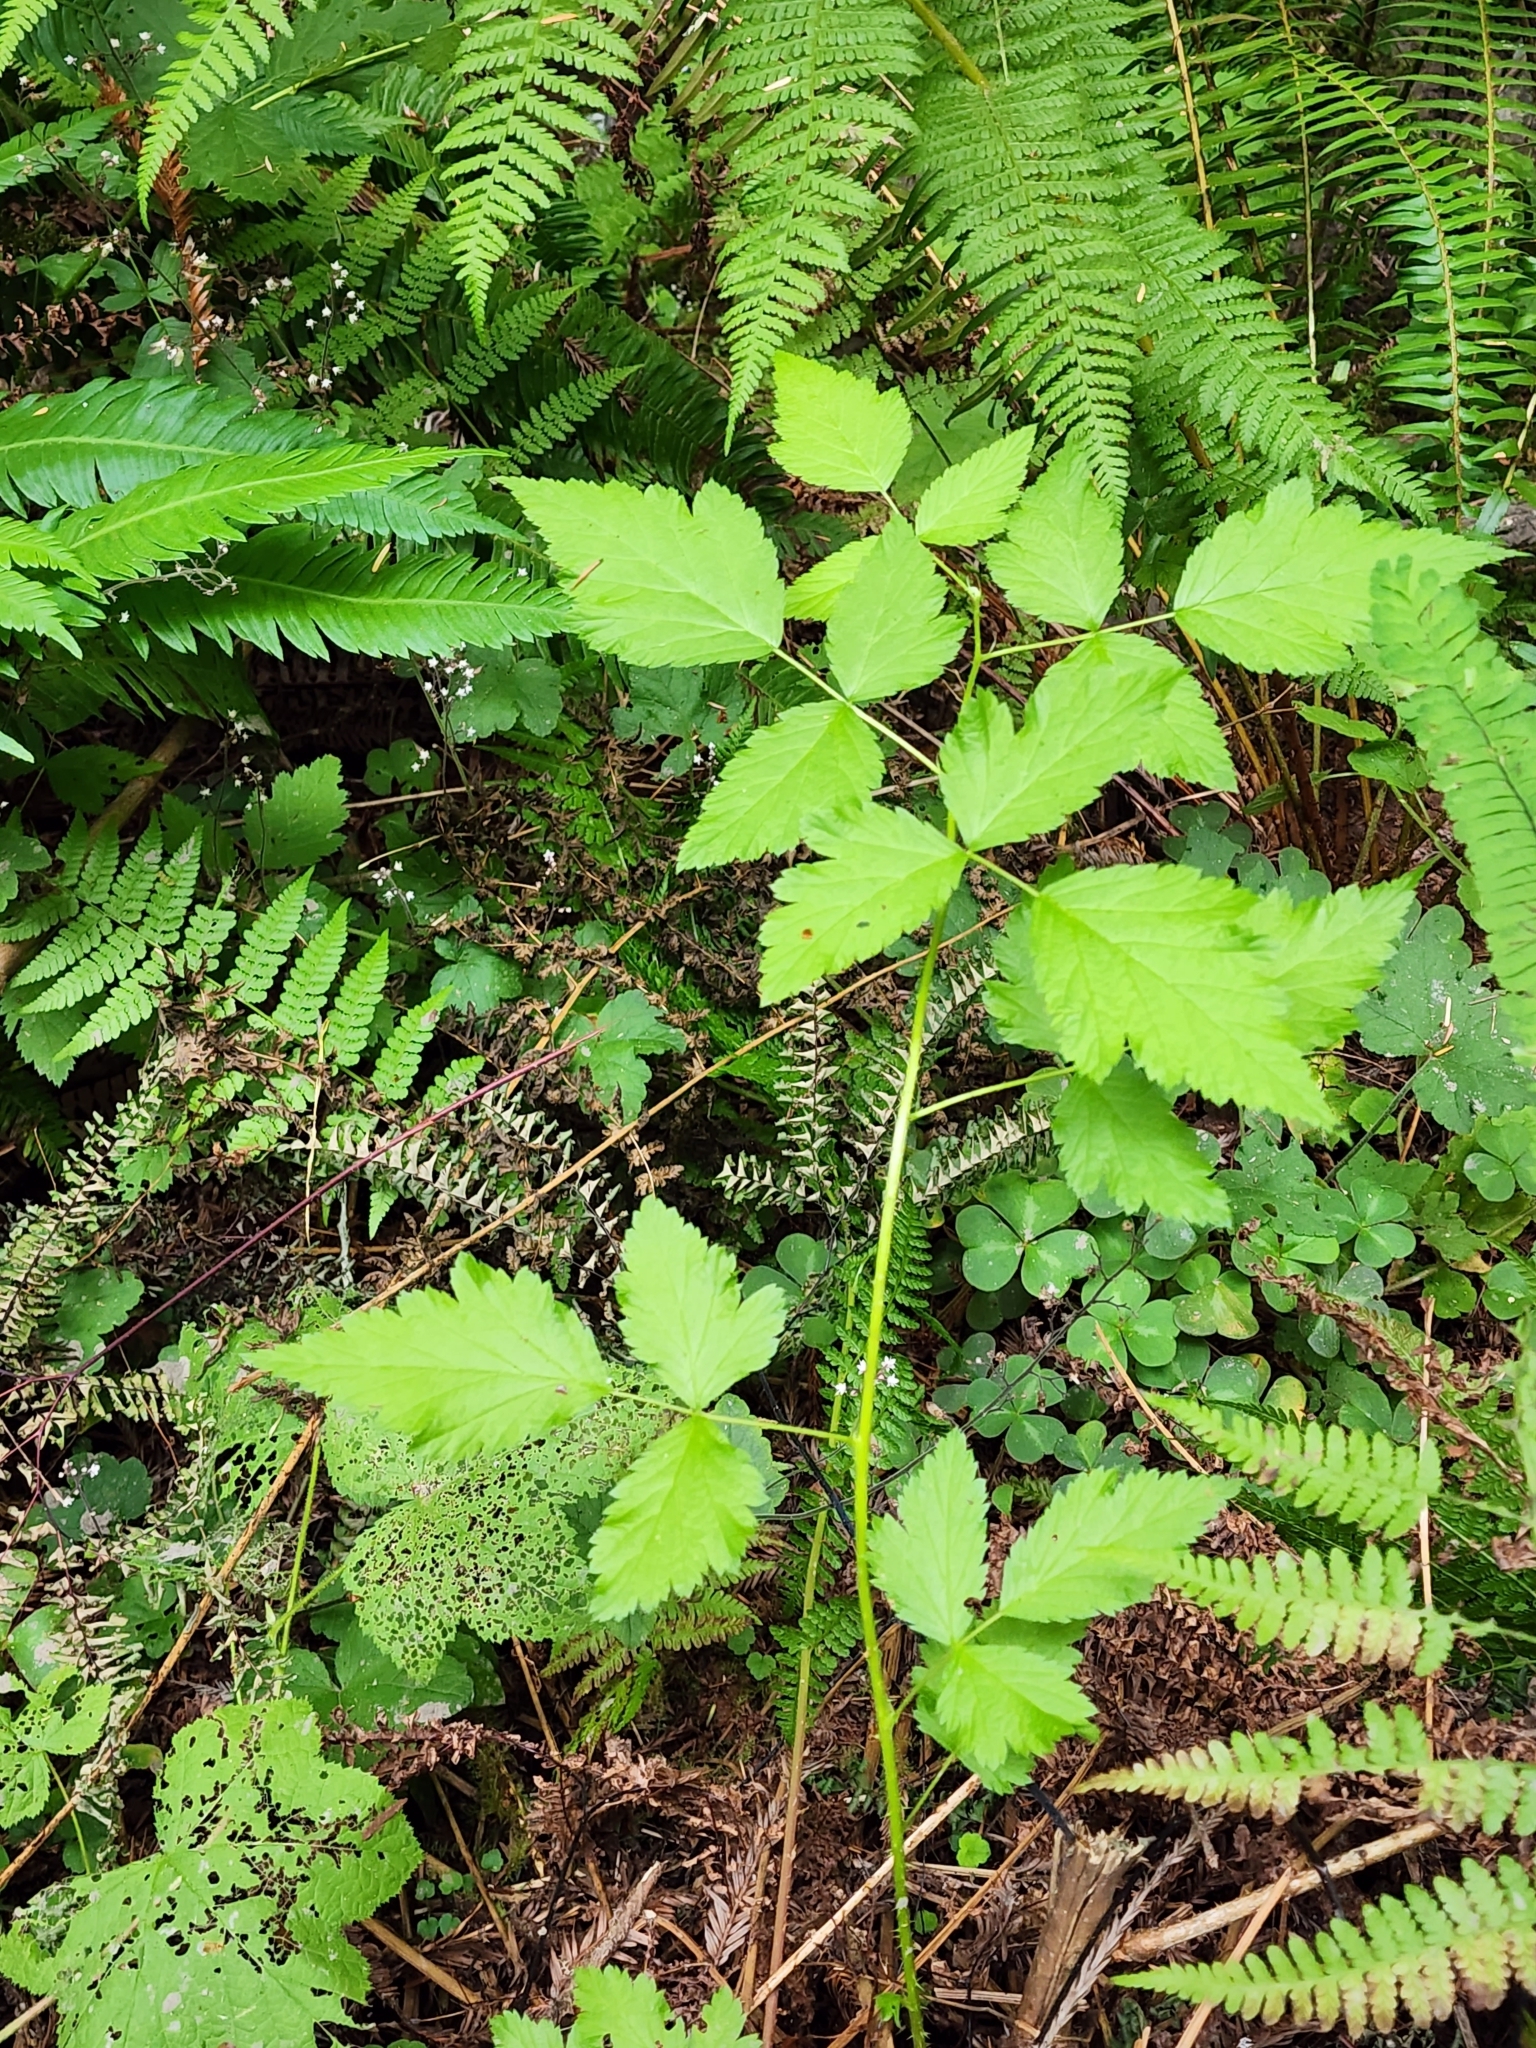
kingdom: Plantae
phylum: Tracheophyta
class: Magnoliopsida
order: Rosales
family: Rosaceae
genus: Rubus
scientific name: Rubus spectabilis
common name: Salmonberry
